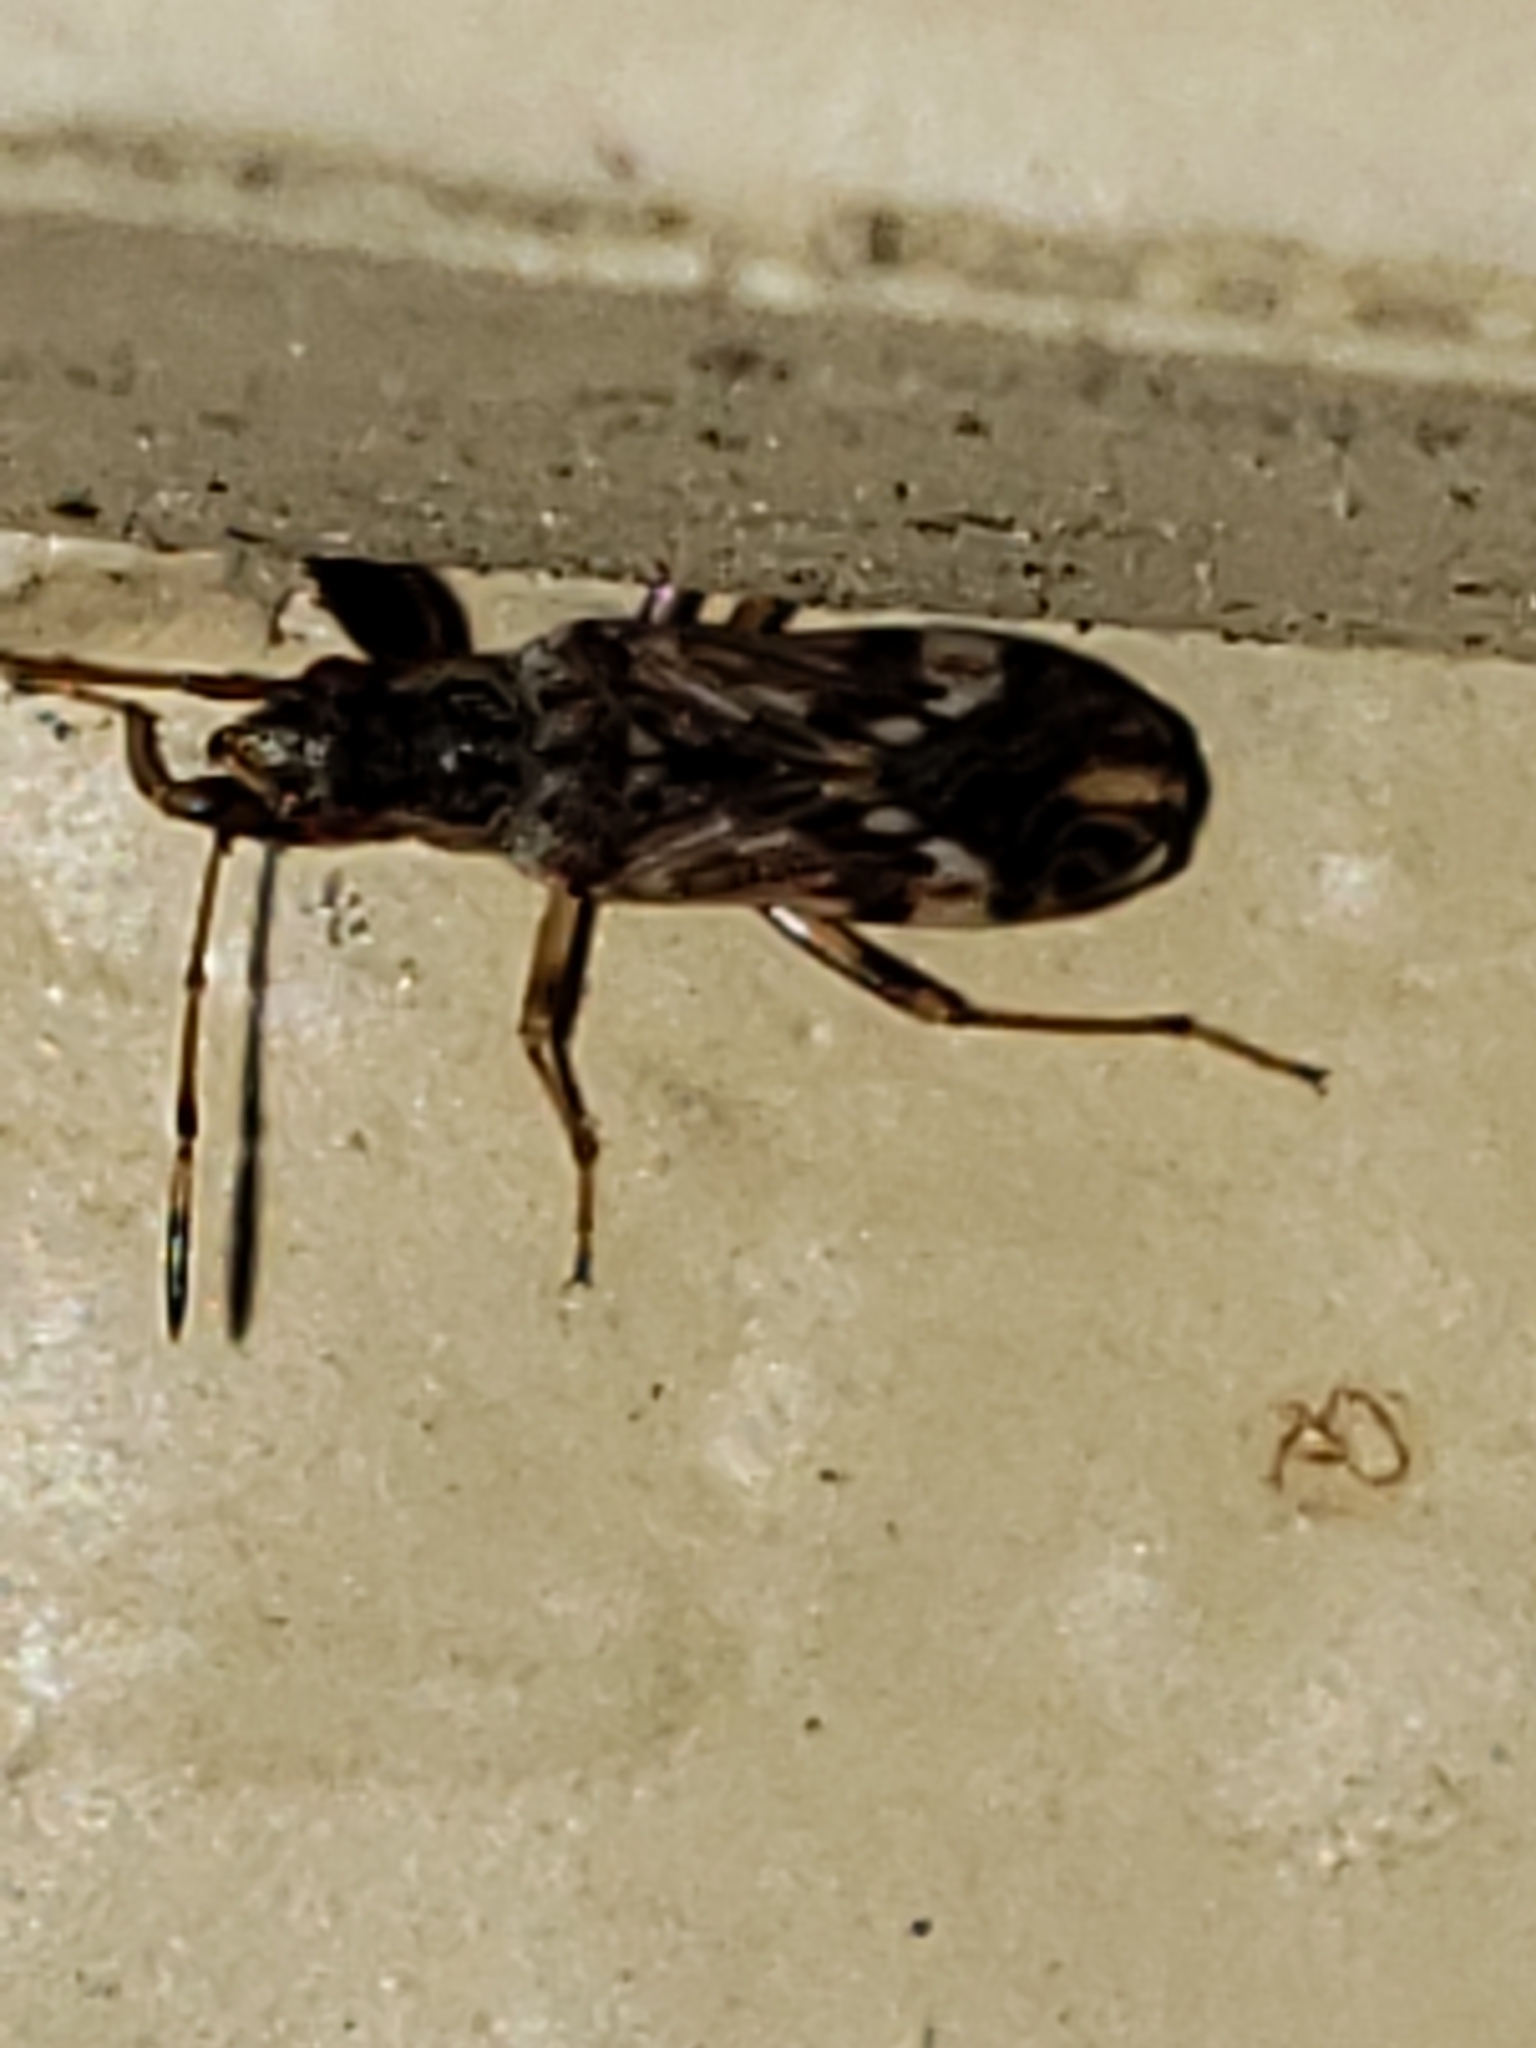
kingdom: Animalia
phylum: Arthropoda
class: Insecta
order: Hemiptera
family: Rhyparochromidae
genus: Neopamera
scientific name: Neopamera albocincta
